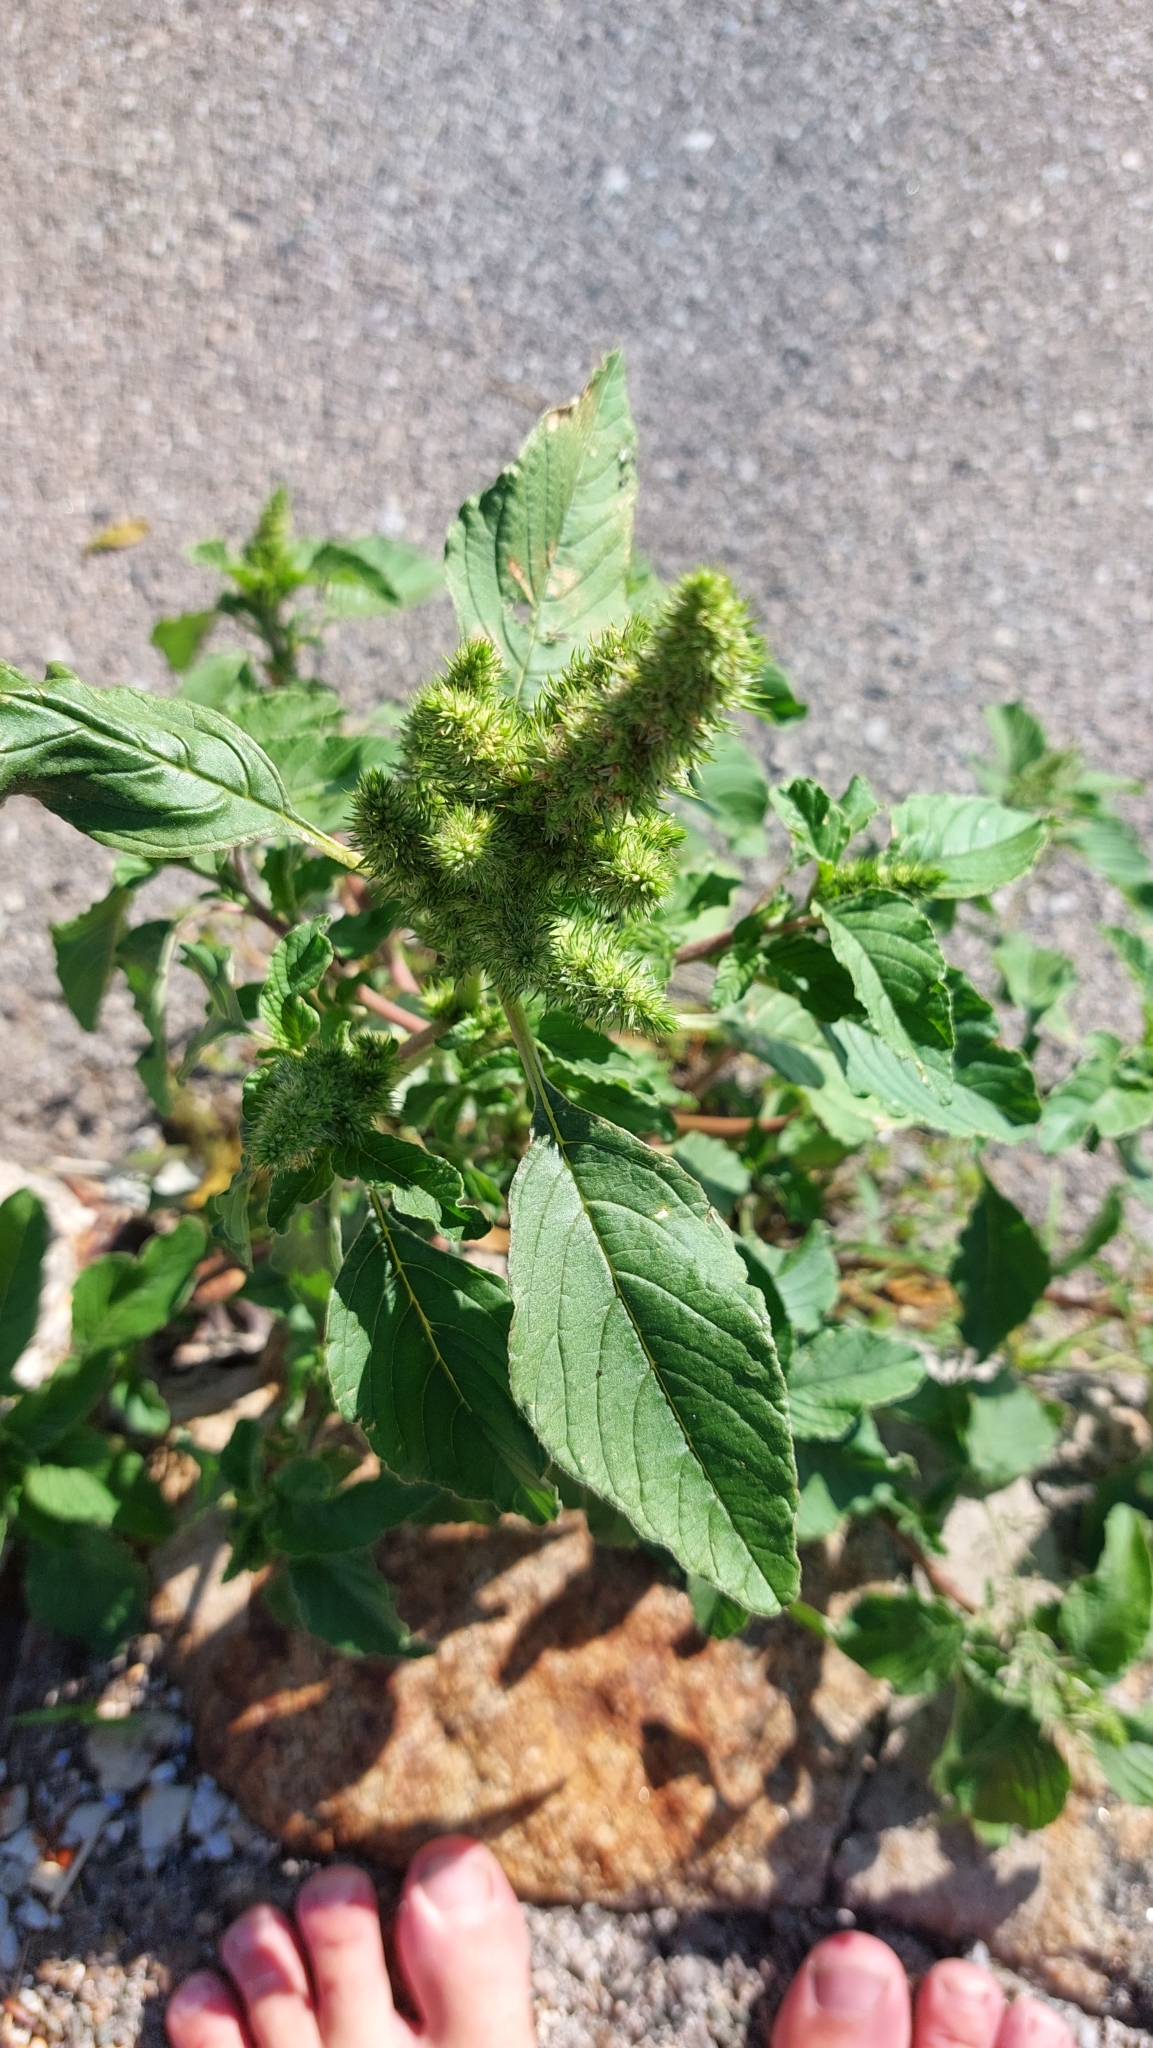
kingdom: Plantae
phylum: Tracheophyta
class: Magnoliopsida
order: Caryophyllales
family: Amaranthaceae
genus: Amaranthus
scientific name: Amaranthus retroflexus
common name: Redroot amaranth
